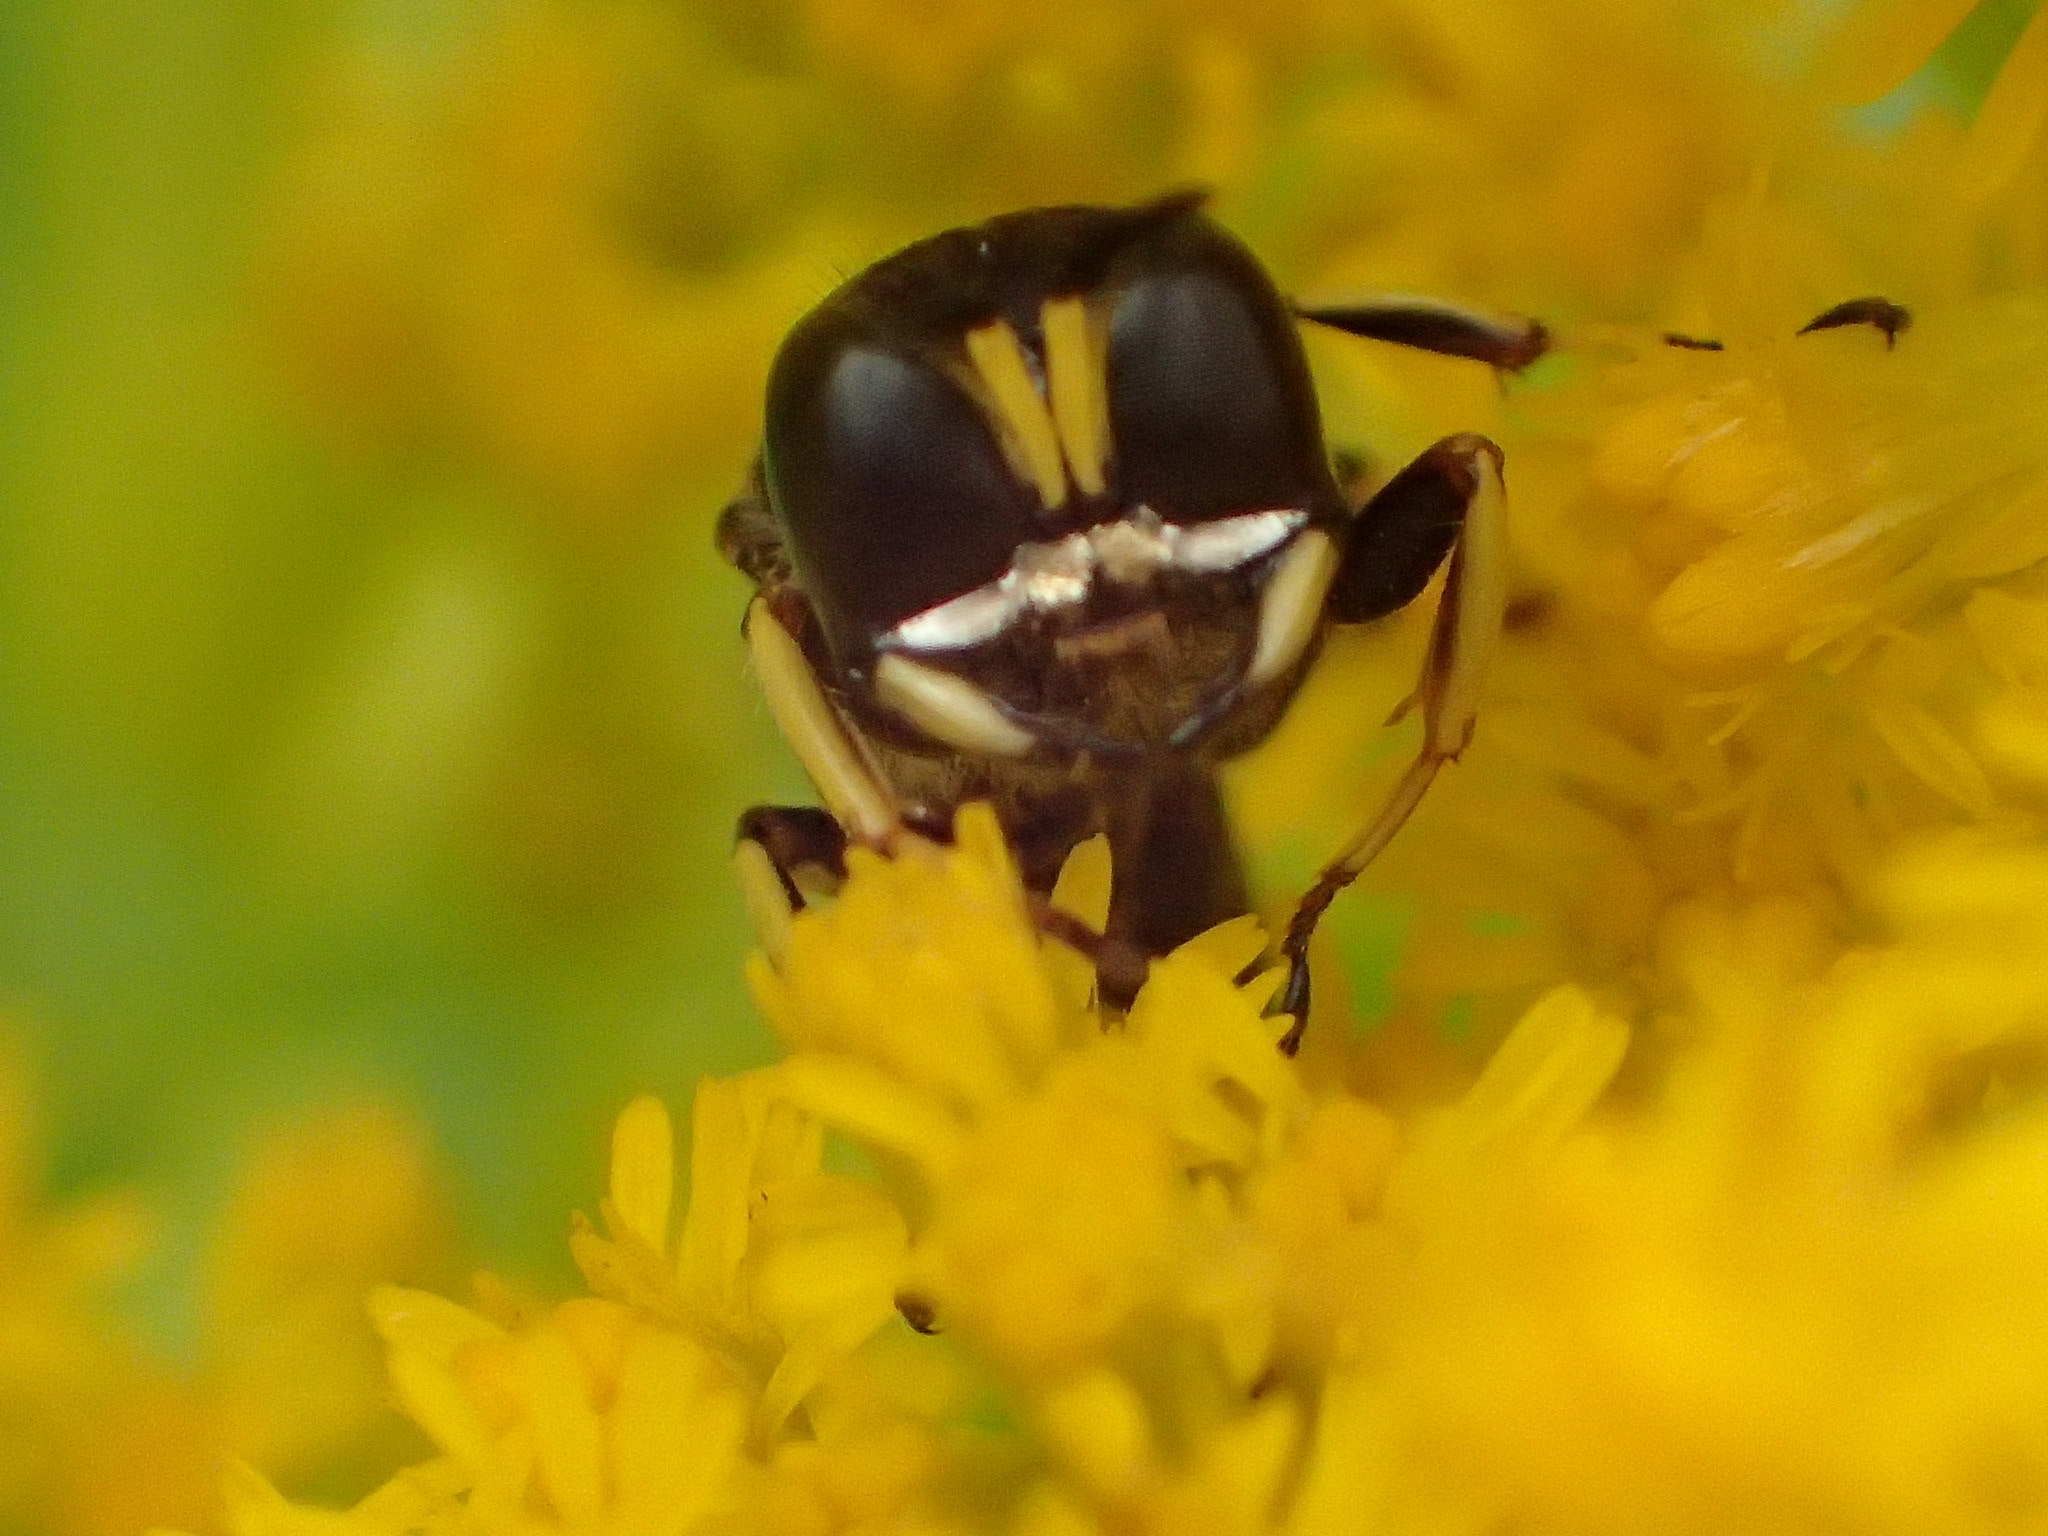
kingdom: Animalia
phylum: Arthropoda
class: Insecta
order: Hymenoptera
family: Crabronidae
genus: Ectemnius
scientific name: Ectemnius maculosus
